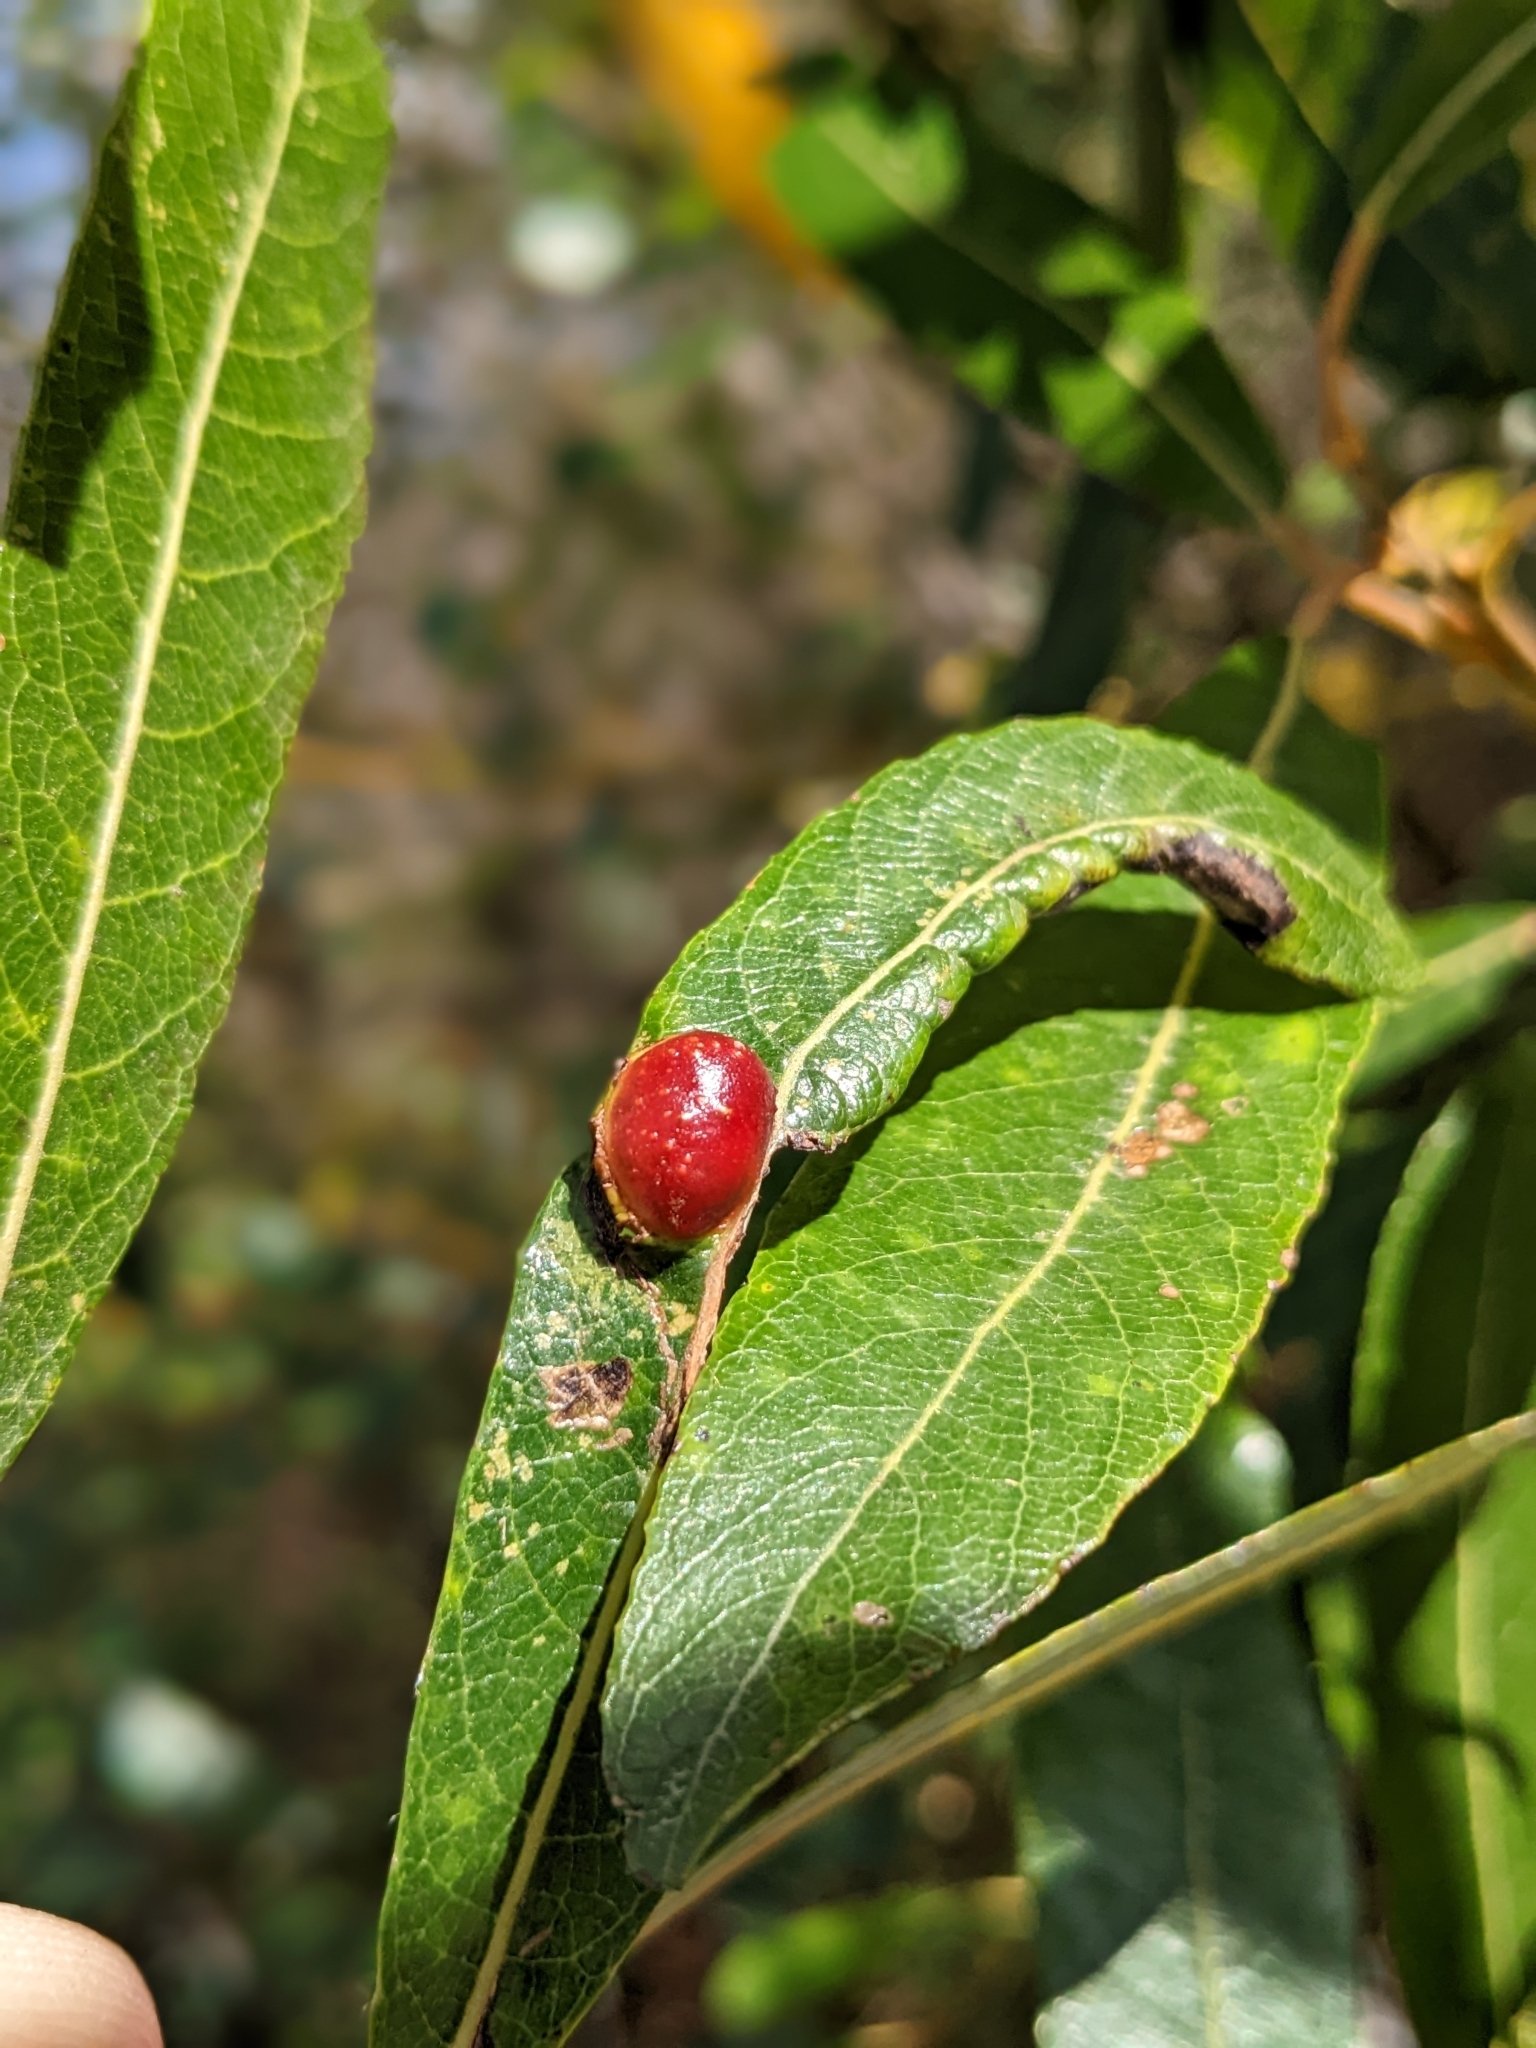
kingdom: Animalia
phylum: Arthropoda
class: Insecta
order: Hymenoptera
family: Tenthredinidae
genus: Euura
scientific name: Euura
